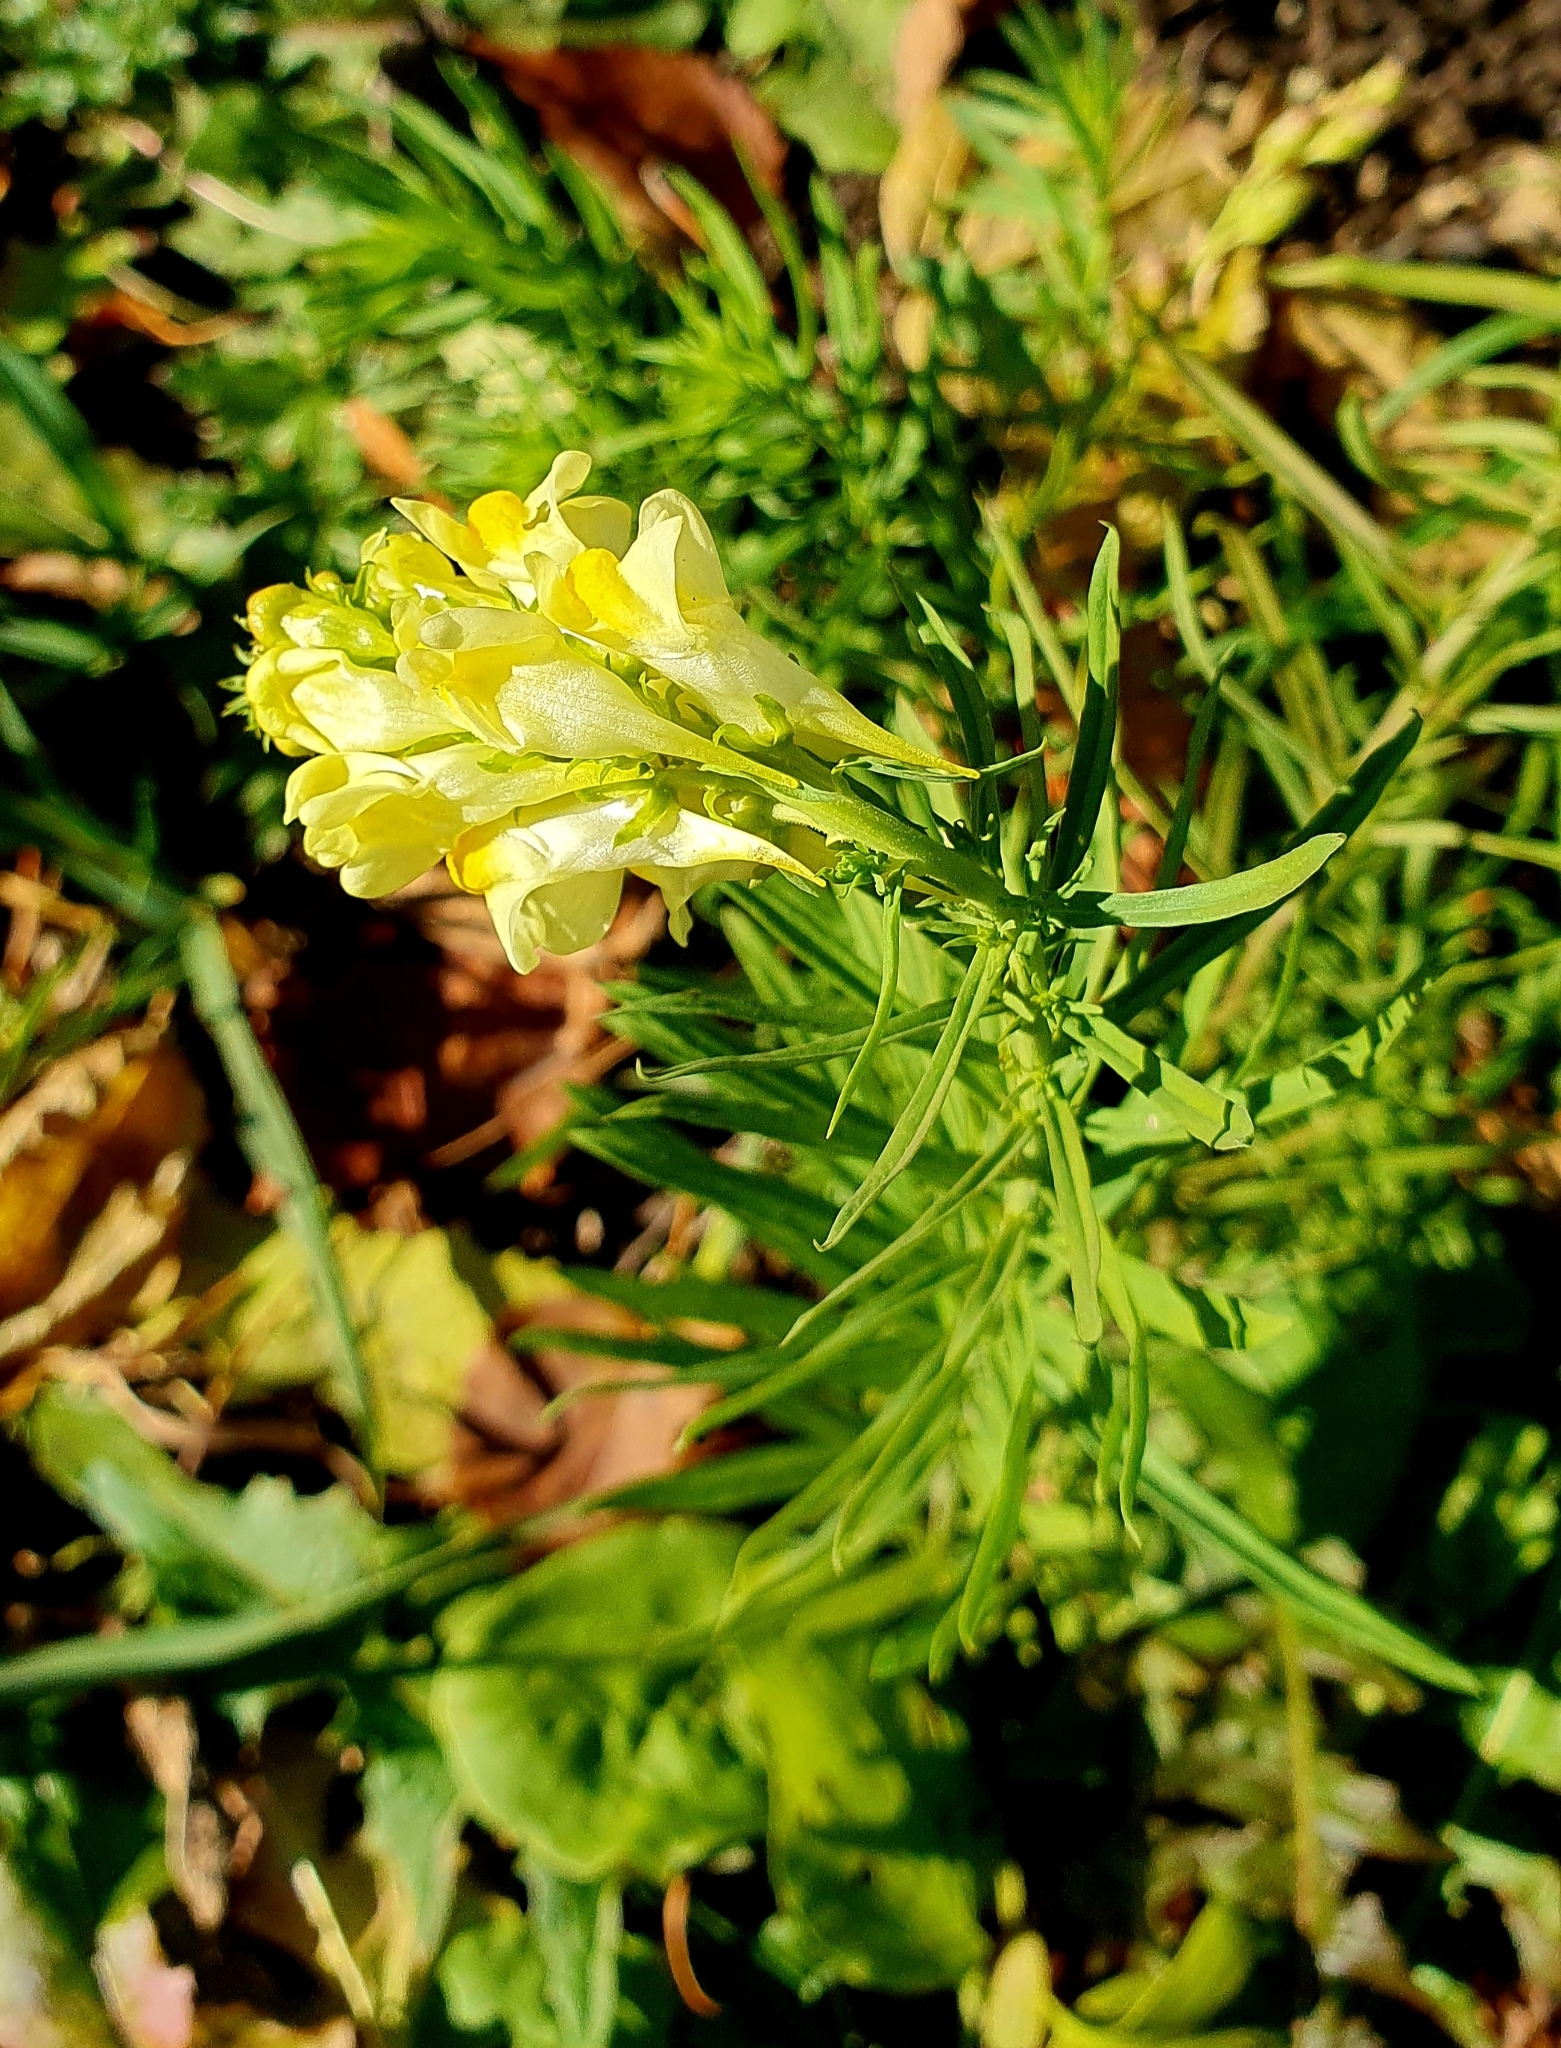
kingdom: Plantae
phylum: Tracheophyta
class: Magnoliopsida
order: Lamiales
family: Plantaginaceae
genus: Linaria
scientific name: Linaria vulgaris
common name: Butter and eggs
